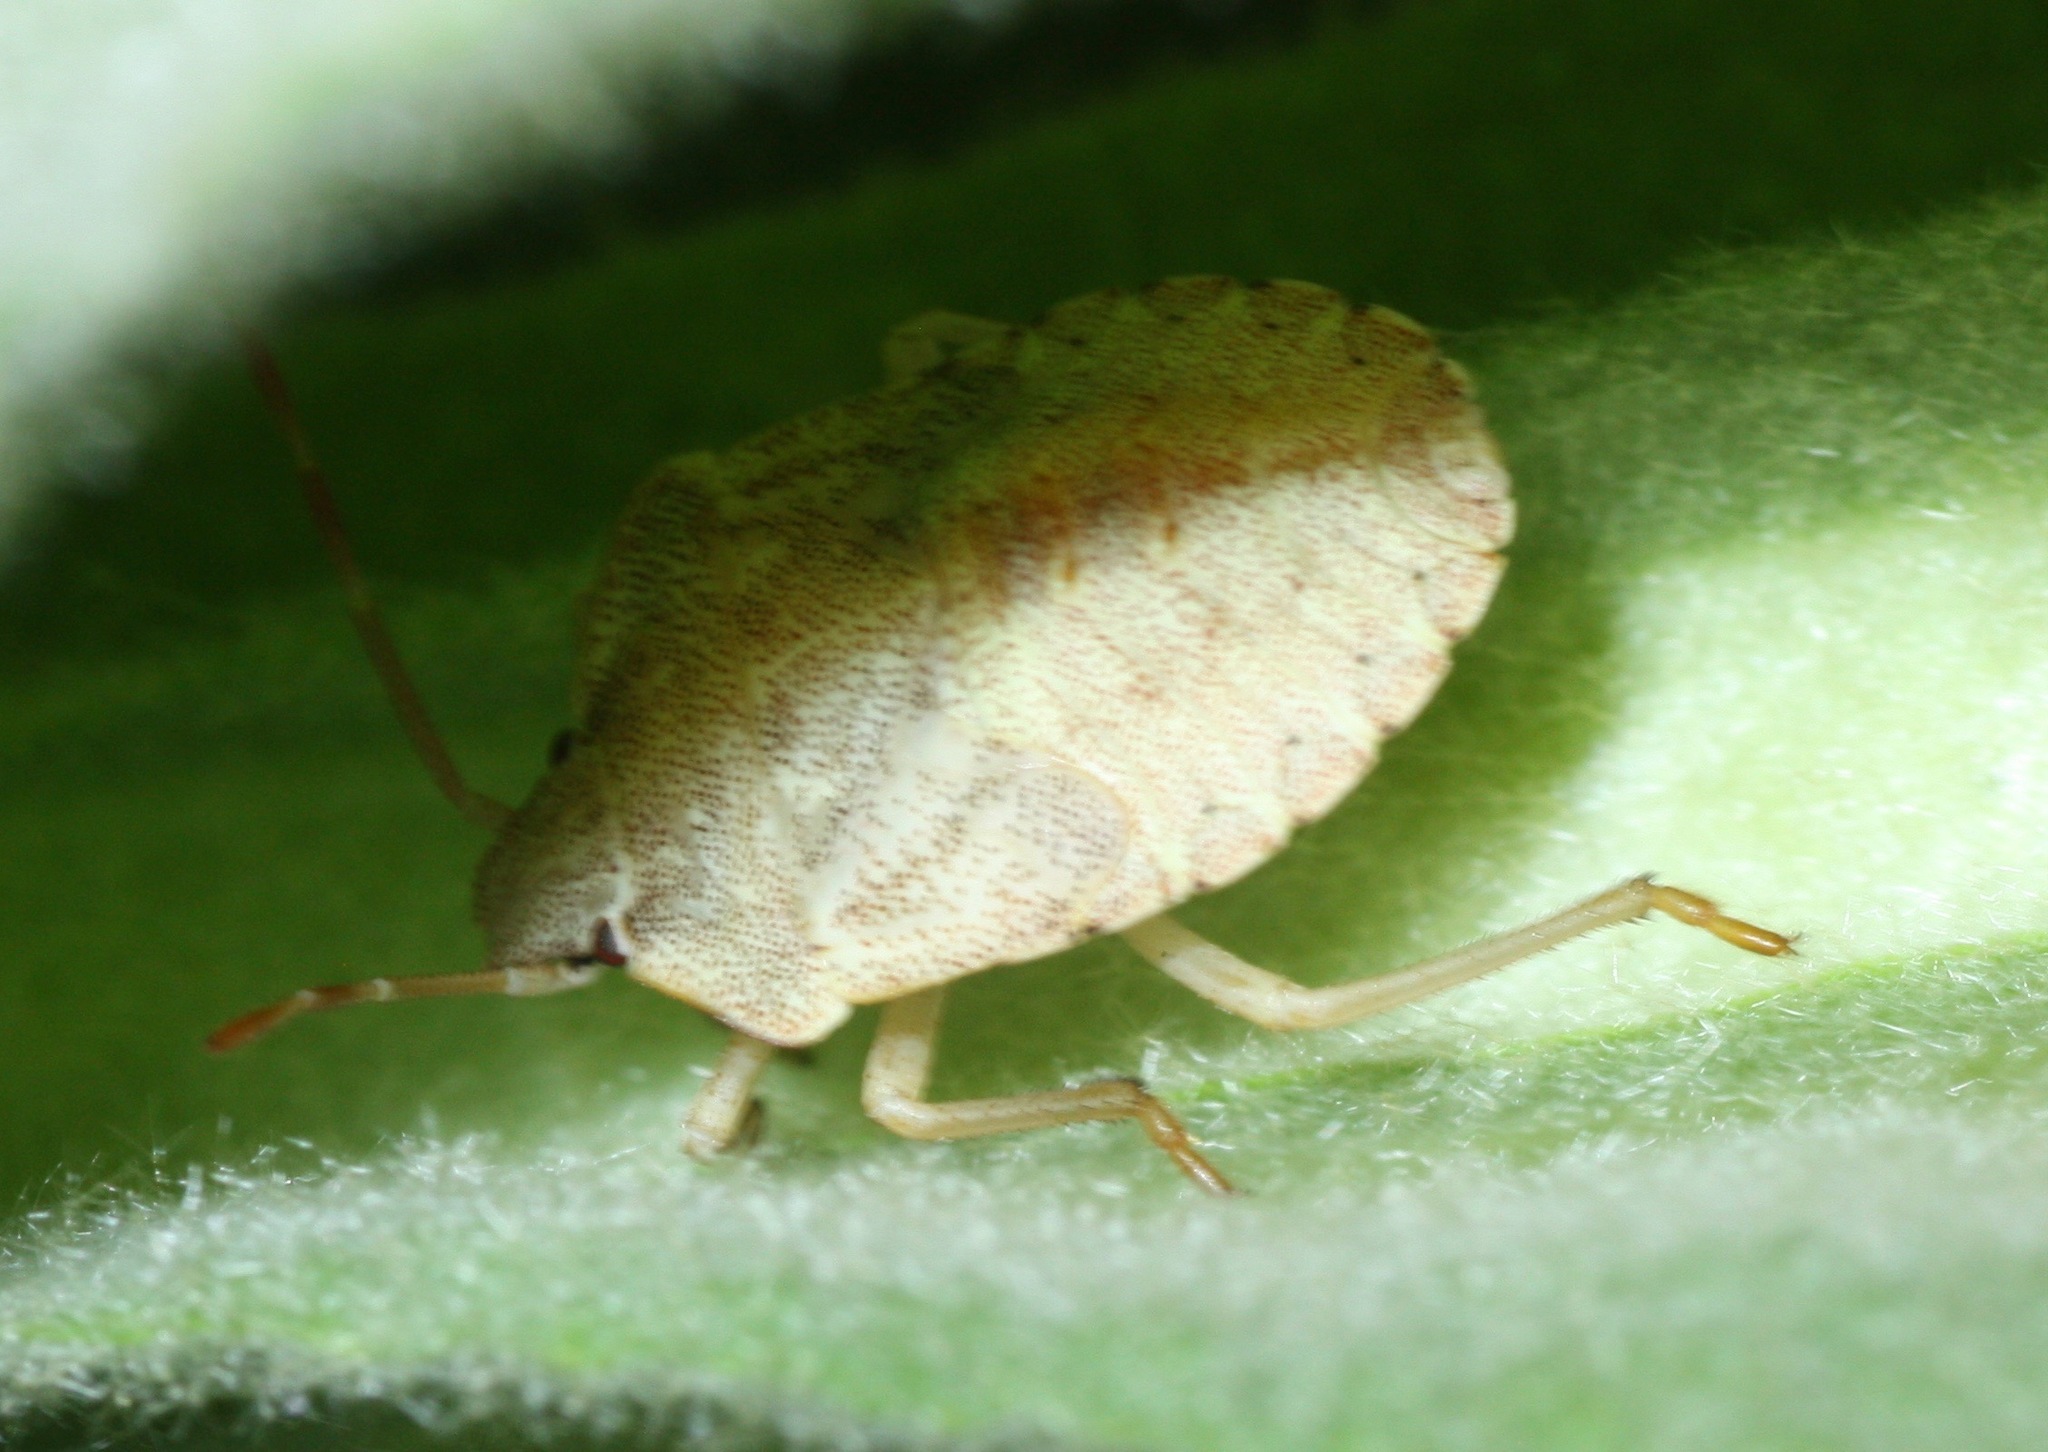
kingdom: Animalia
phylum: Arthropoda
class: Insecta
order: Hemiptera
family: Pentatomidae
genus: Euschistus
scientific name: Euschistus inflatus
